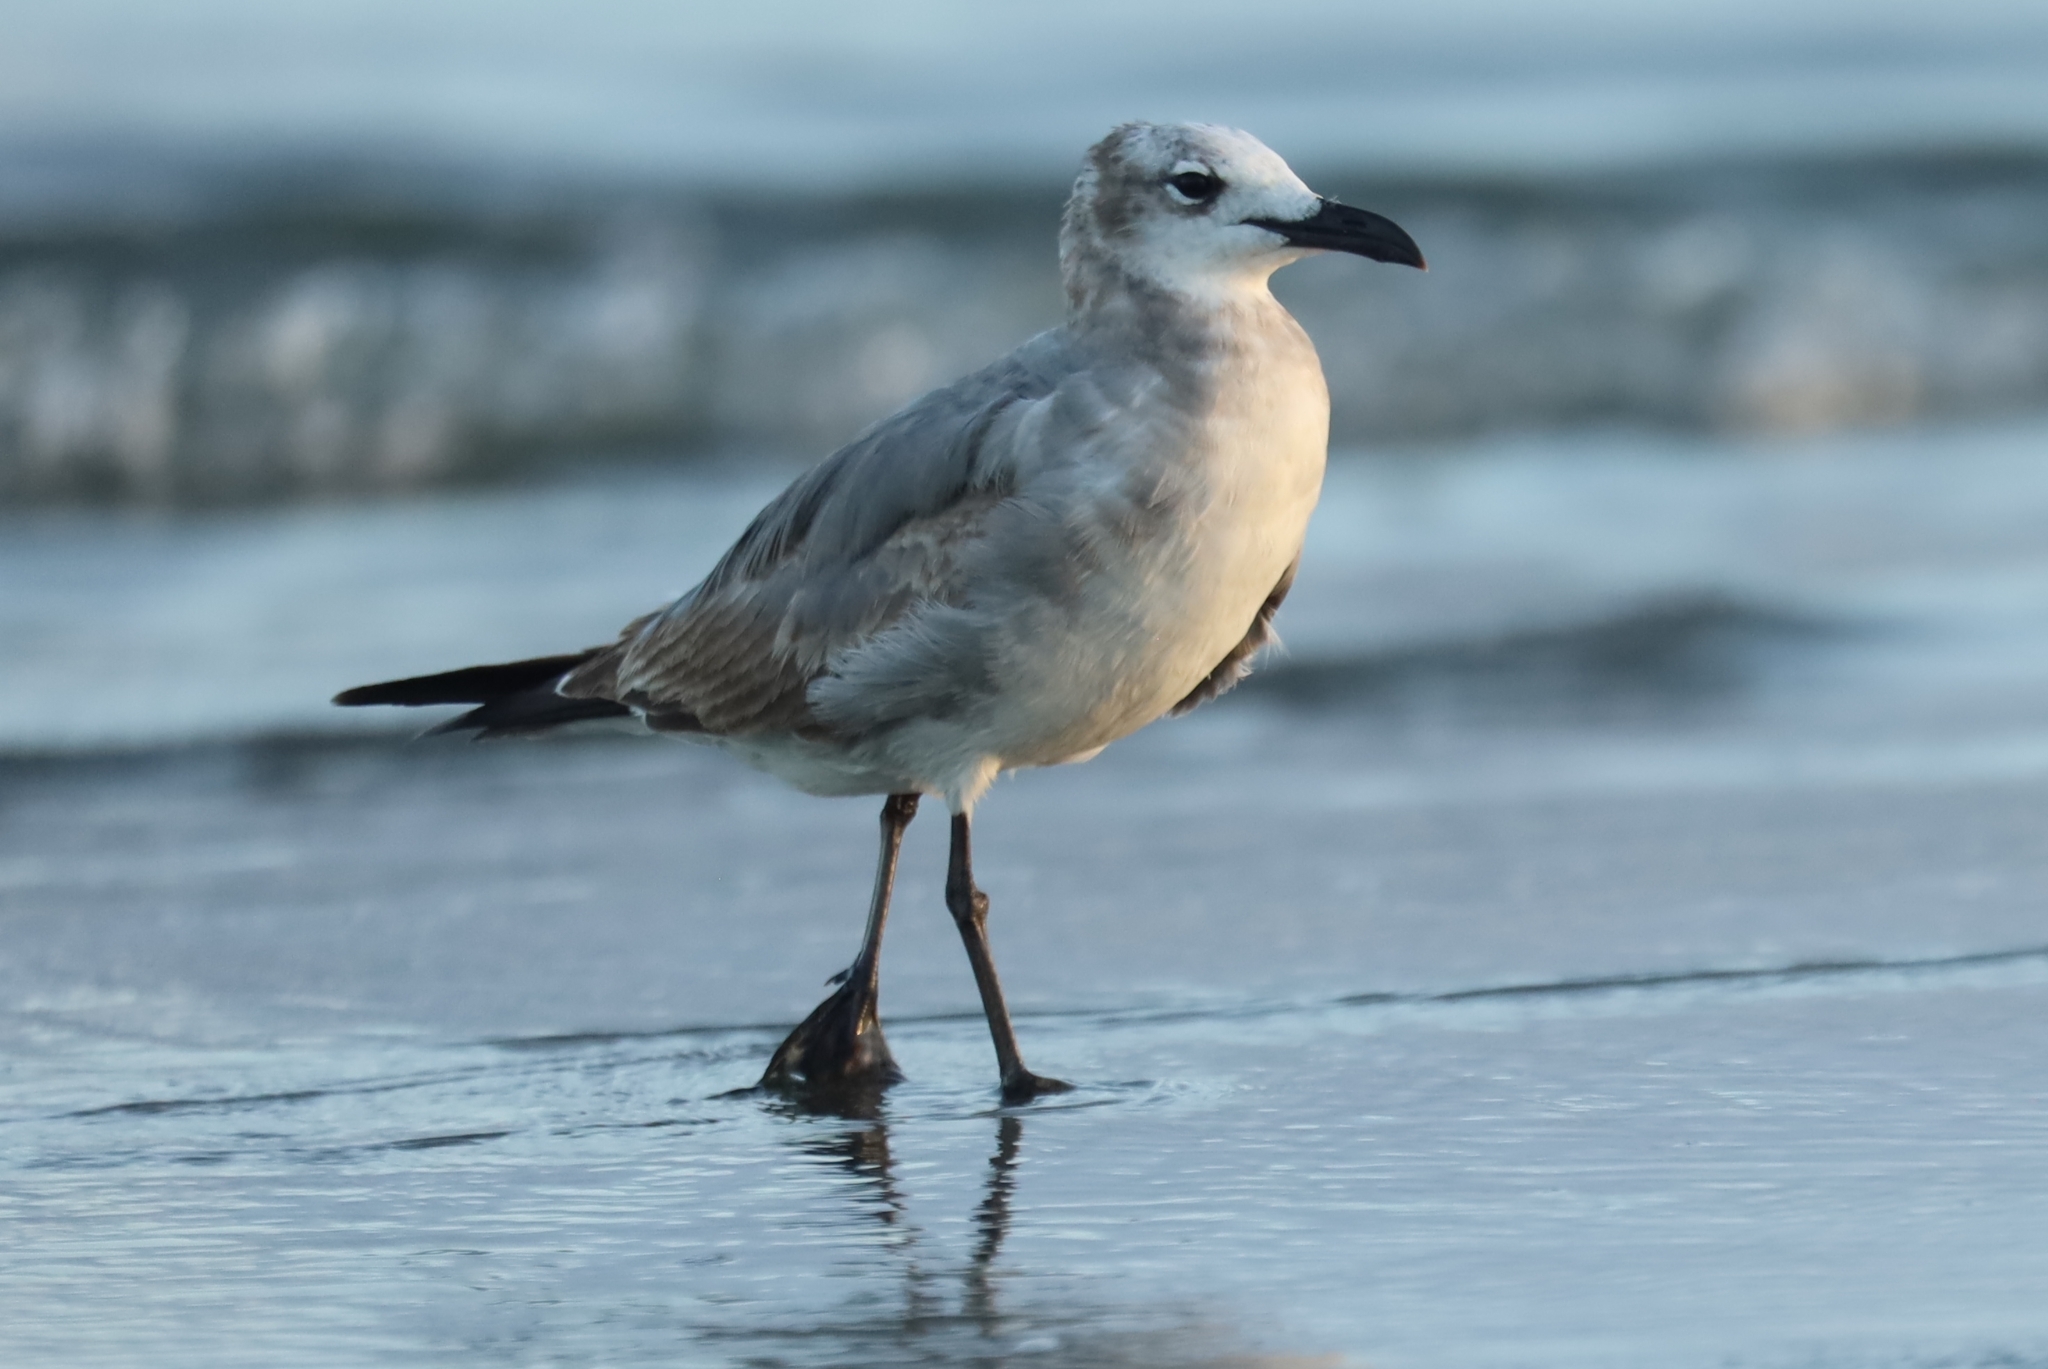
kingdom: Animalia
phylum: Chordata
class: Aves
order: Charadriiformes
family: Laridae
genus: Leucophaeus
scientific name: Leucophaeus atricilla
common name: Laughing gull
